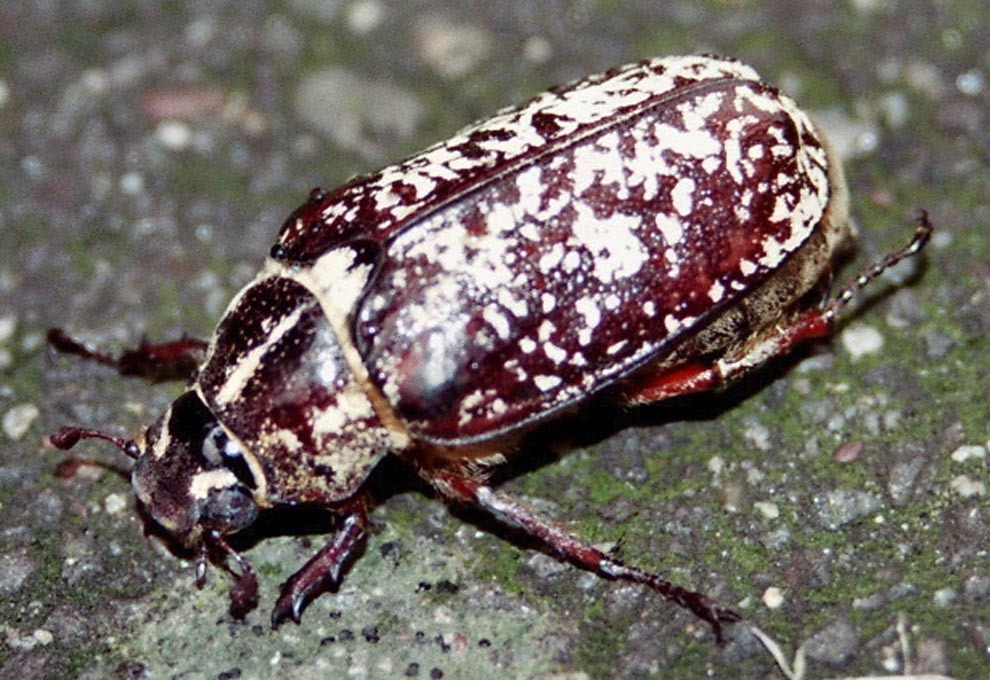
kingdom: Animalia
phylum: Arthropoda
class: Insecta
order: Coleoptera
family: Scarabaeidae
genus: Polyphylla
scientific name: Polyphylla fullo
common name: Pine chafer
